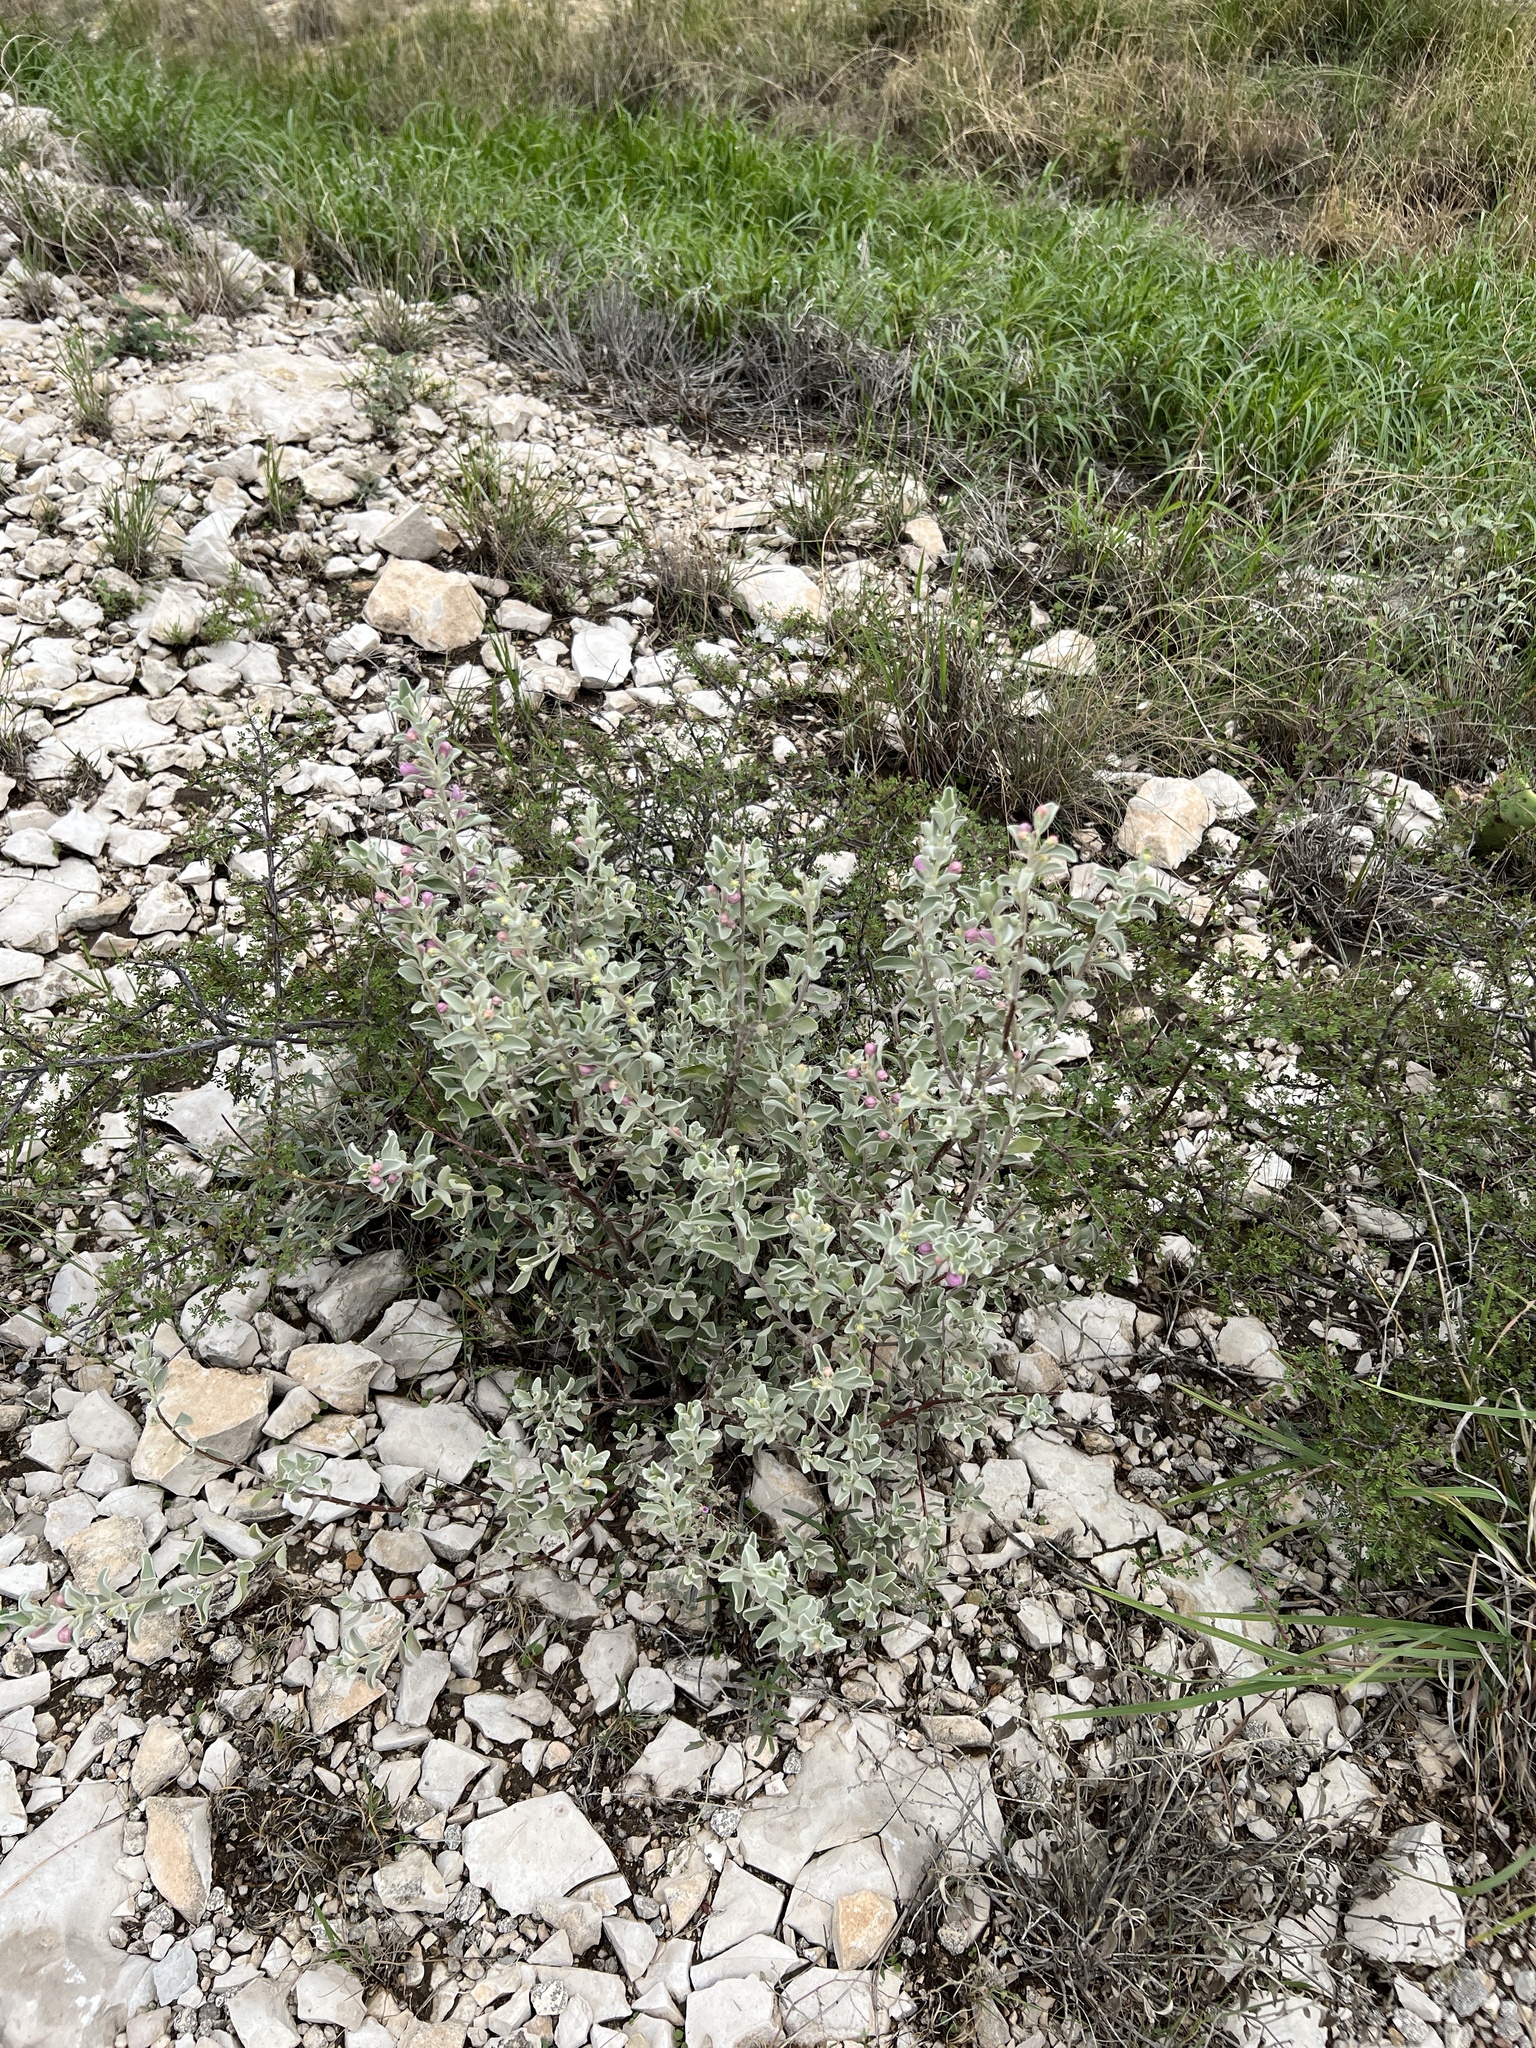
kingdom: Plantae
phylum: Tracheophyta
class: Magnoliopsida
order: Lamiales
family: Scrophulariaceae
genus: Leucophyllum
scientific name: Leucophyllum frutescens
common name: Texas silverleaf
